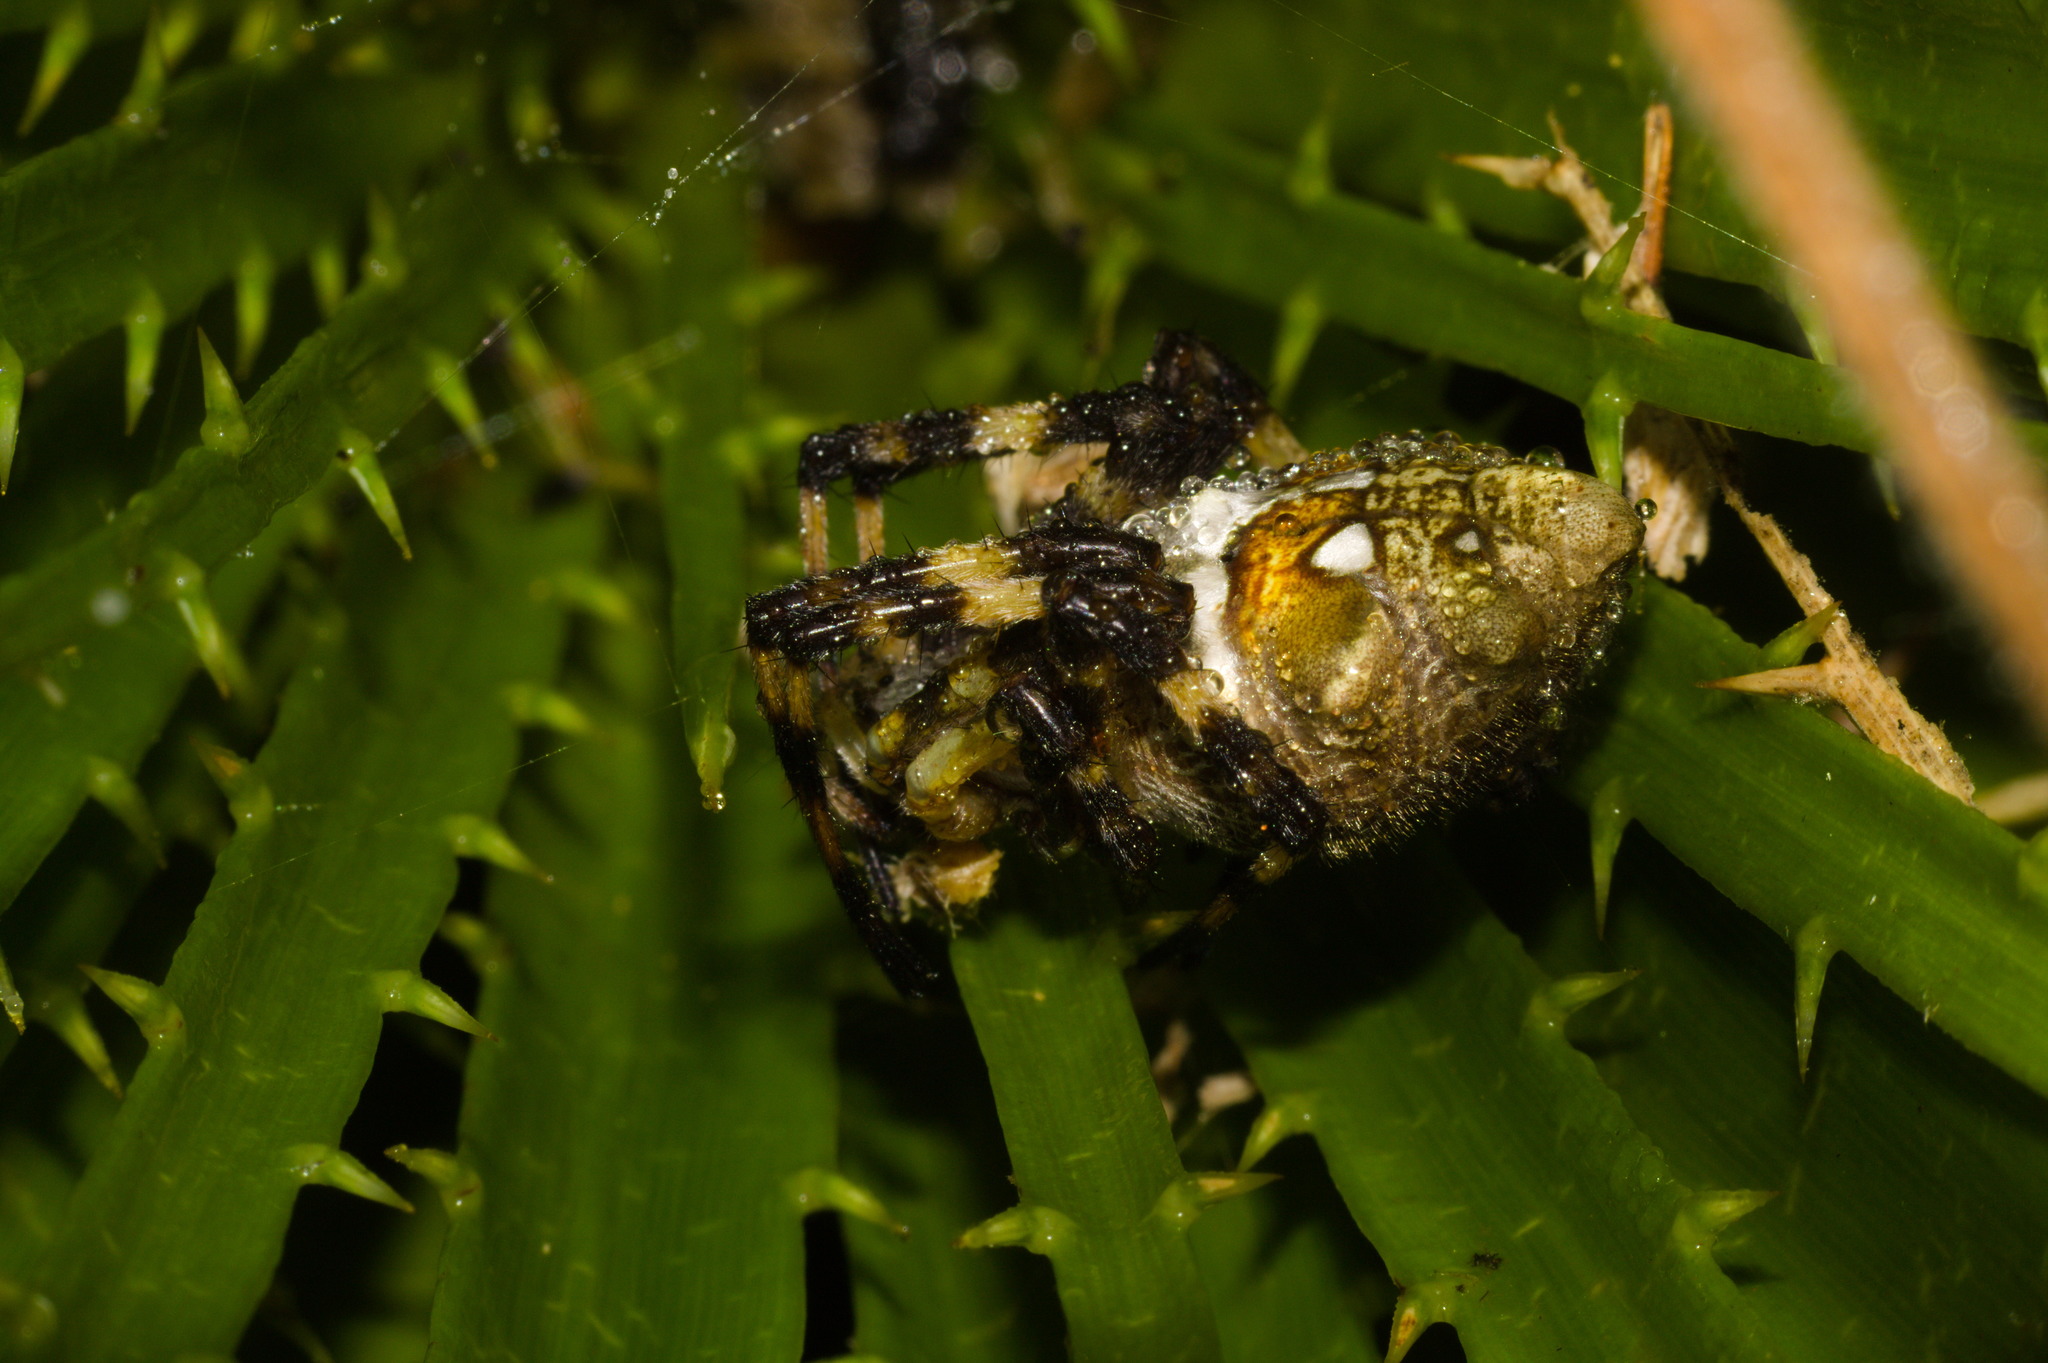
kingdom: Animalia
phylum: Arthropoda
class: Arachnida
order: Araneae
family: Araneidae
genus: Argiope
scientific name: Argiope argentata
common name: Orb weavers
